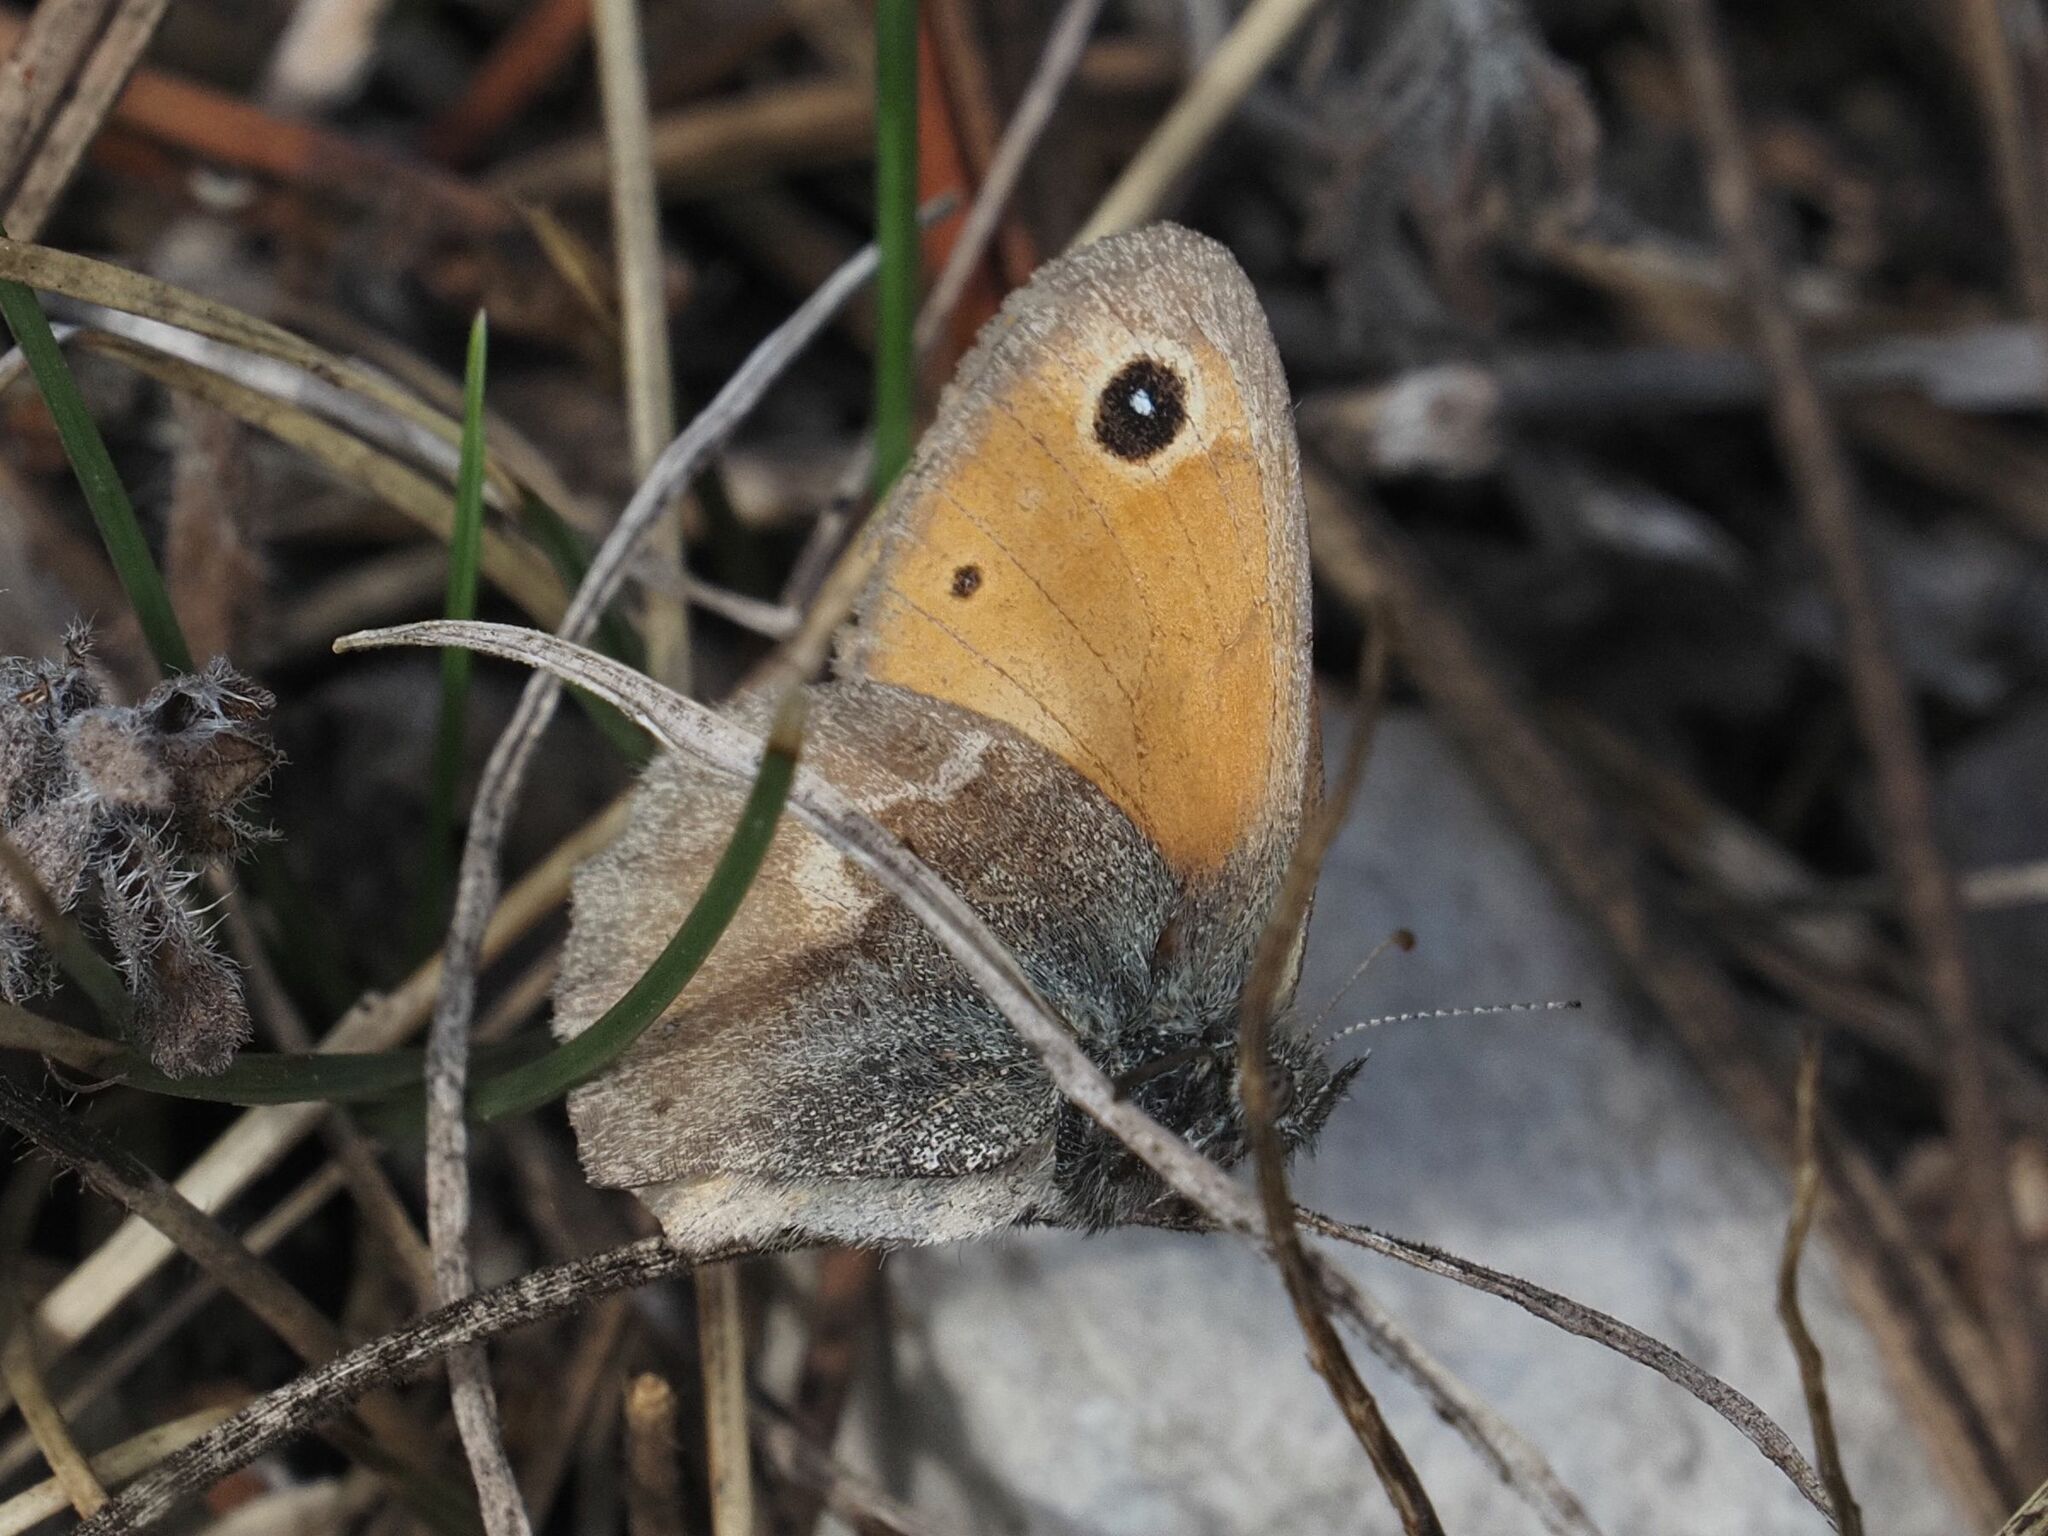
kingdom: Animalia
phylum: Arthropoda
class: Insecta
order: Lepidoptera
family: Nymphalidae
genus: Coenonympha
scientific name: Coenonympha pamphilus
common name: Small heath
